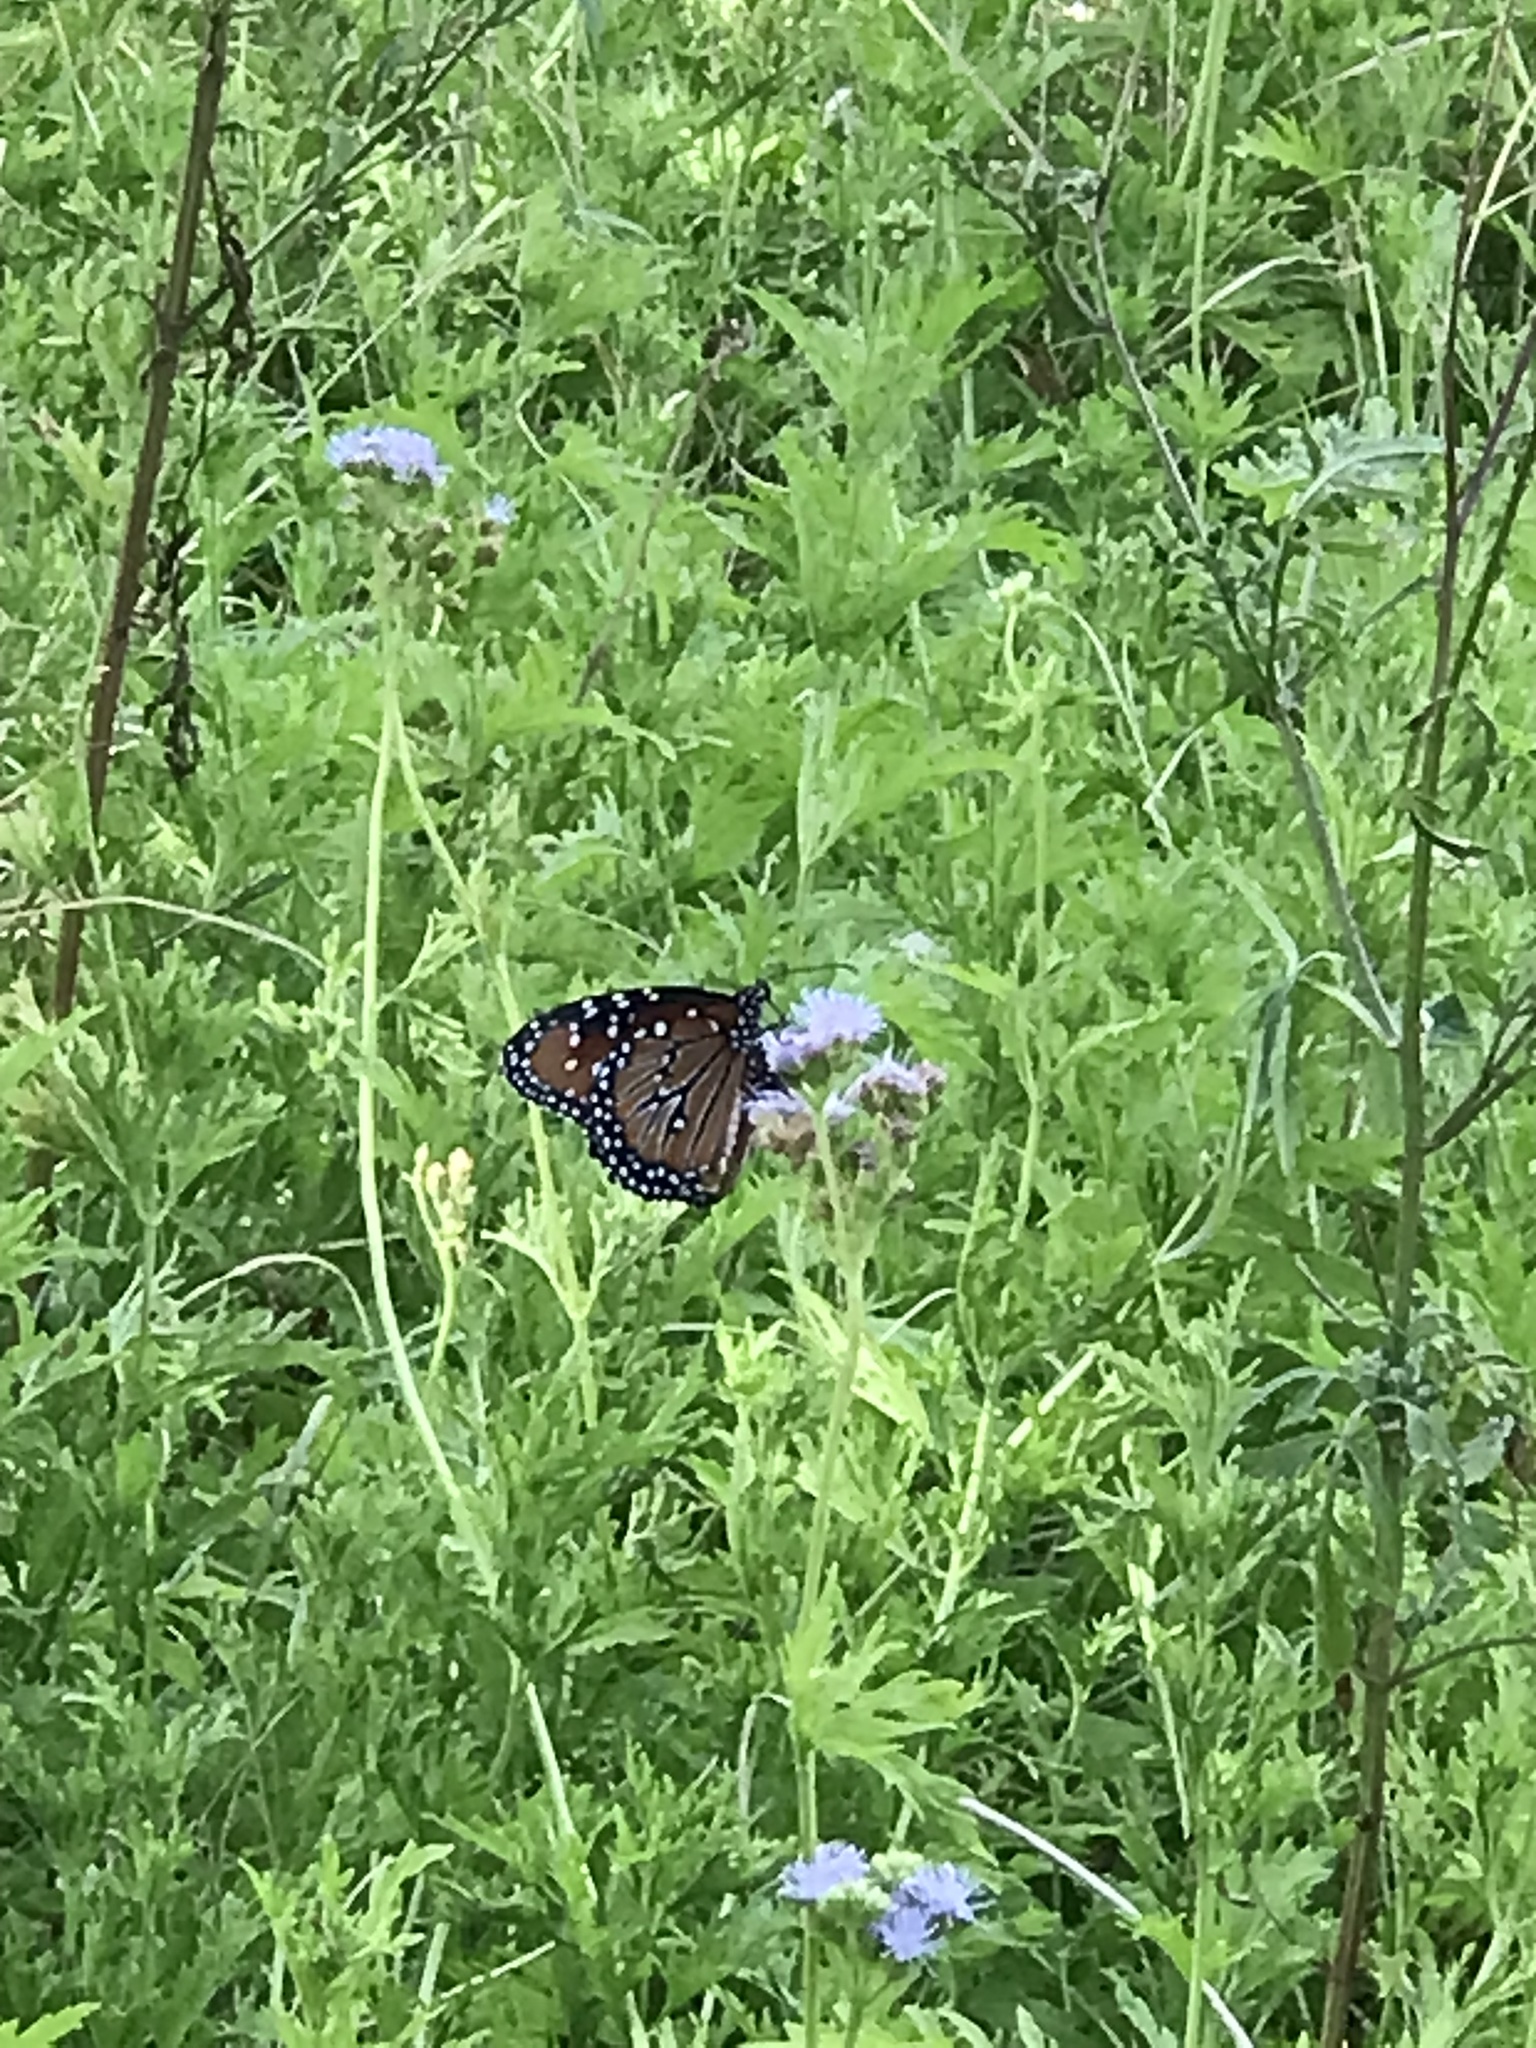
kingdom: Animalia
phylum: Arthropoda
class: Insecta
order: Lepidoptera
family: Nymphalidae
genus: Danaus
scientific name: Danaus gilippus
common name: Queen
